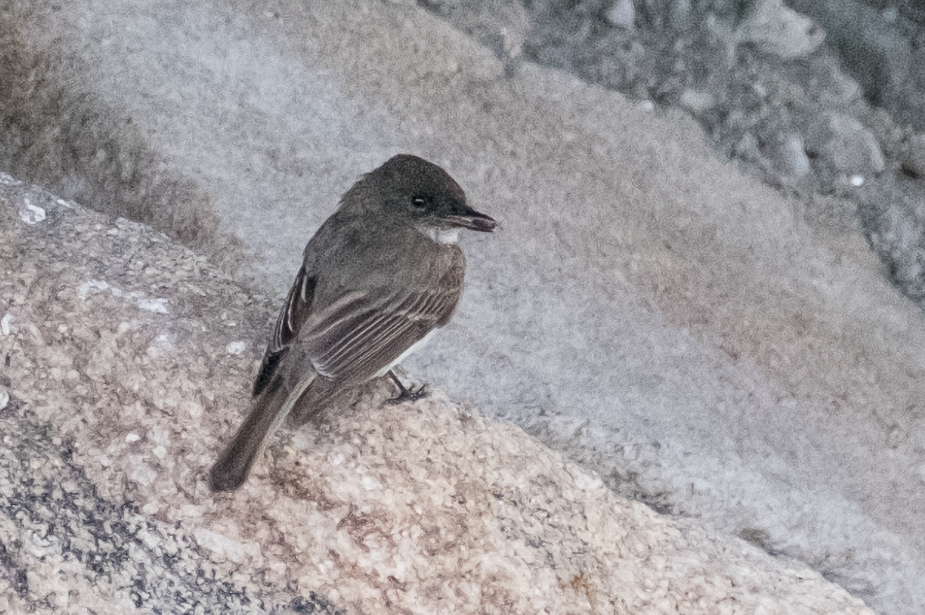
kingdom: Animalia
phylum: Chordata
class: Aves
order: Passeriformes
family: Tyrannidae
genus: Sayornis
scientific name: Sayornis phoebe
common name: Eastern phoebe
